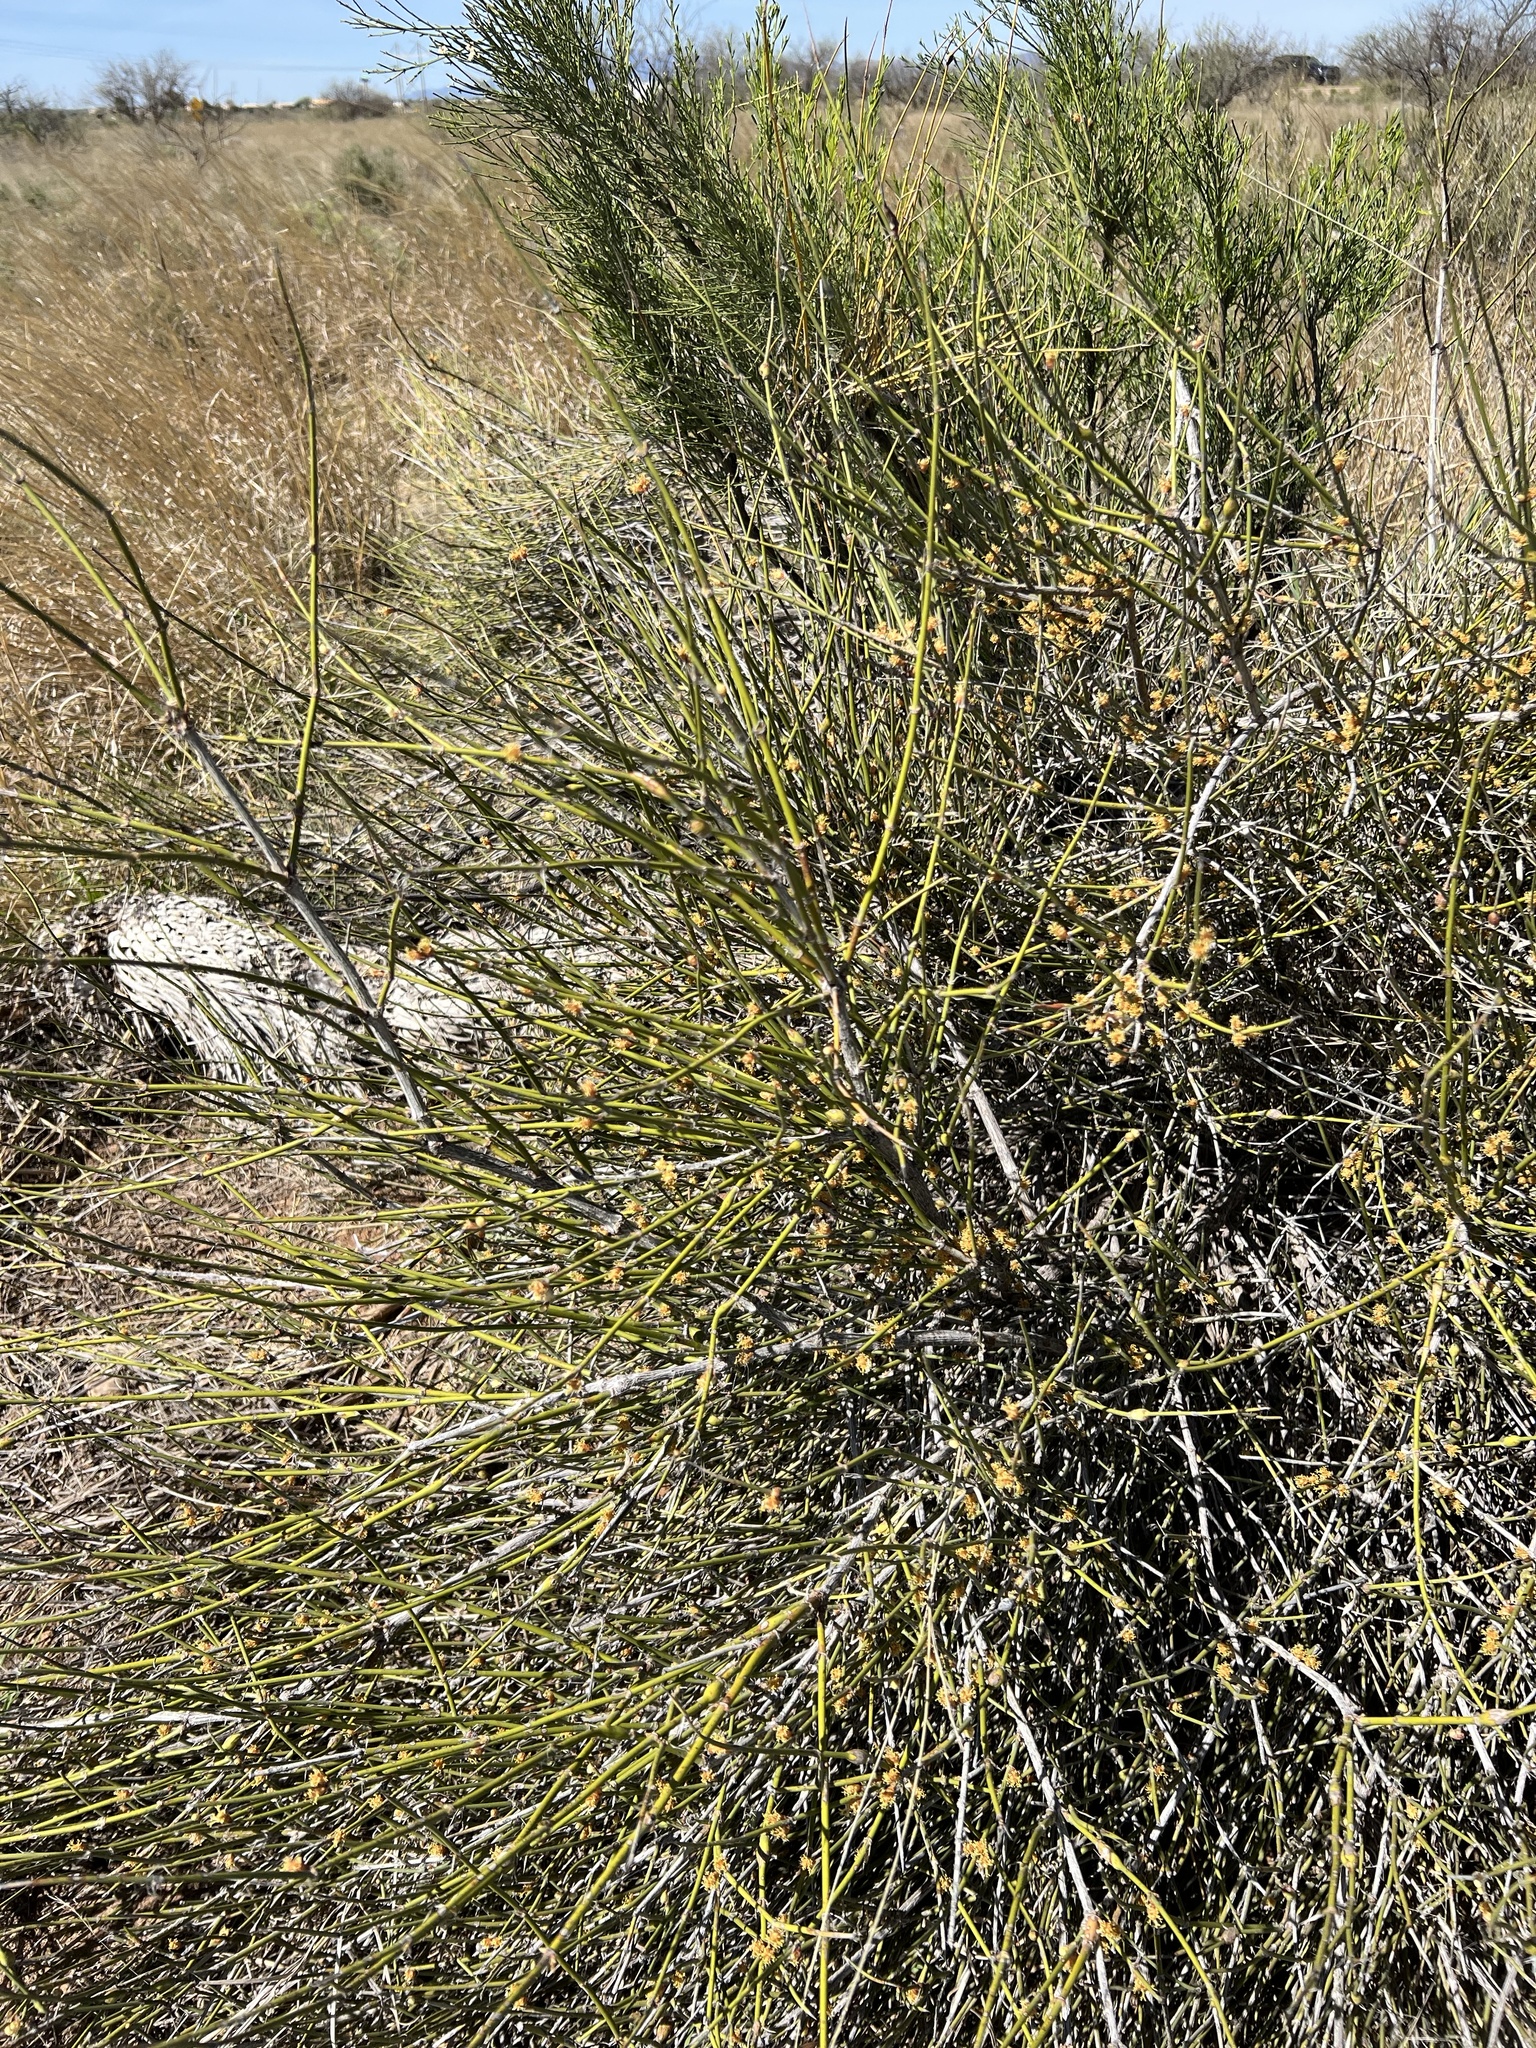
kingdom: Plantae
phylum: Tracheophyta
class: Gnetopsida
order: Ephedrales
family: Ephedraceae
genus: Ephedra
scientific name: Ephedra trifurca
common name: Mexican-tea
